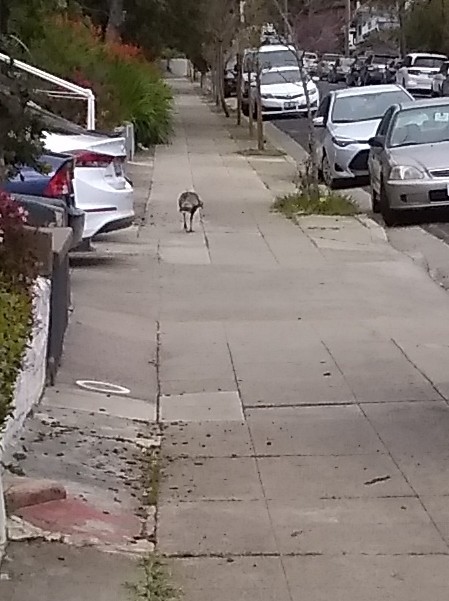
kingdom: Animalia
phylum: Chordata
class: Aves
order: Galliformes
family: Phasianidae
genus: Meleagris
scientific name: Meleagris gallopavo
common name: Wild turkey
